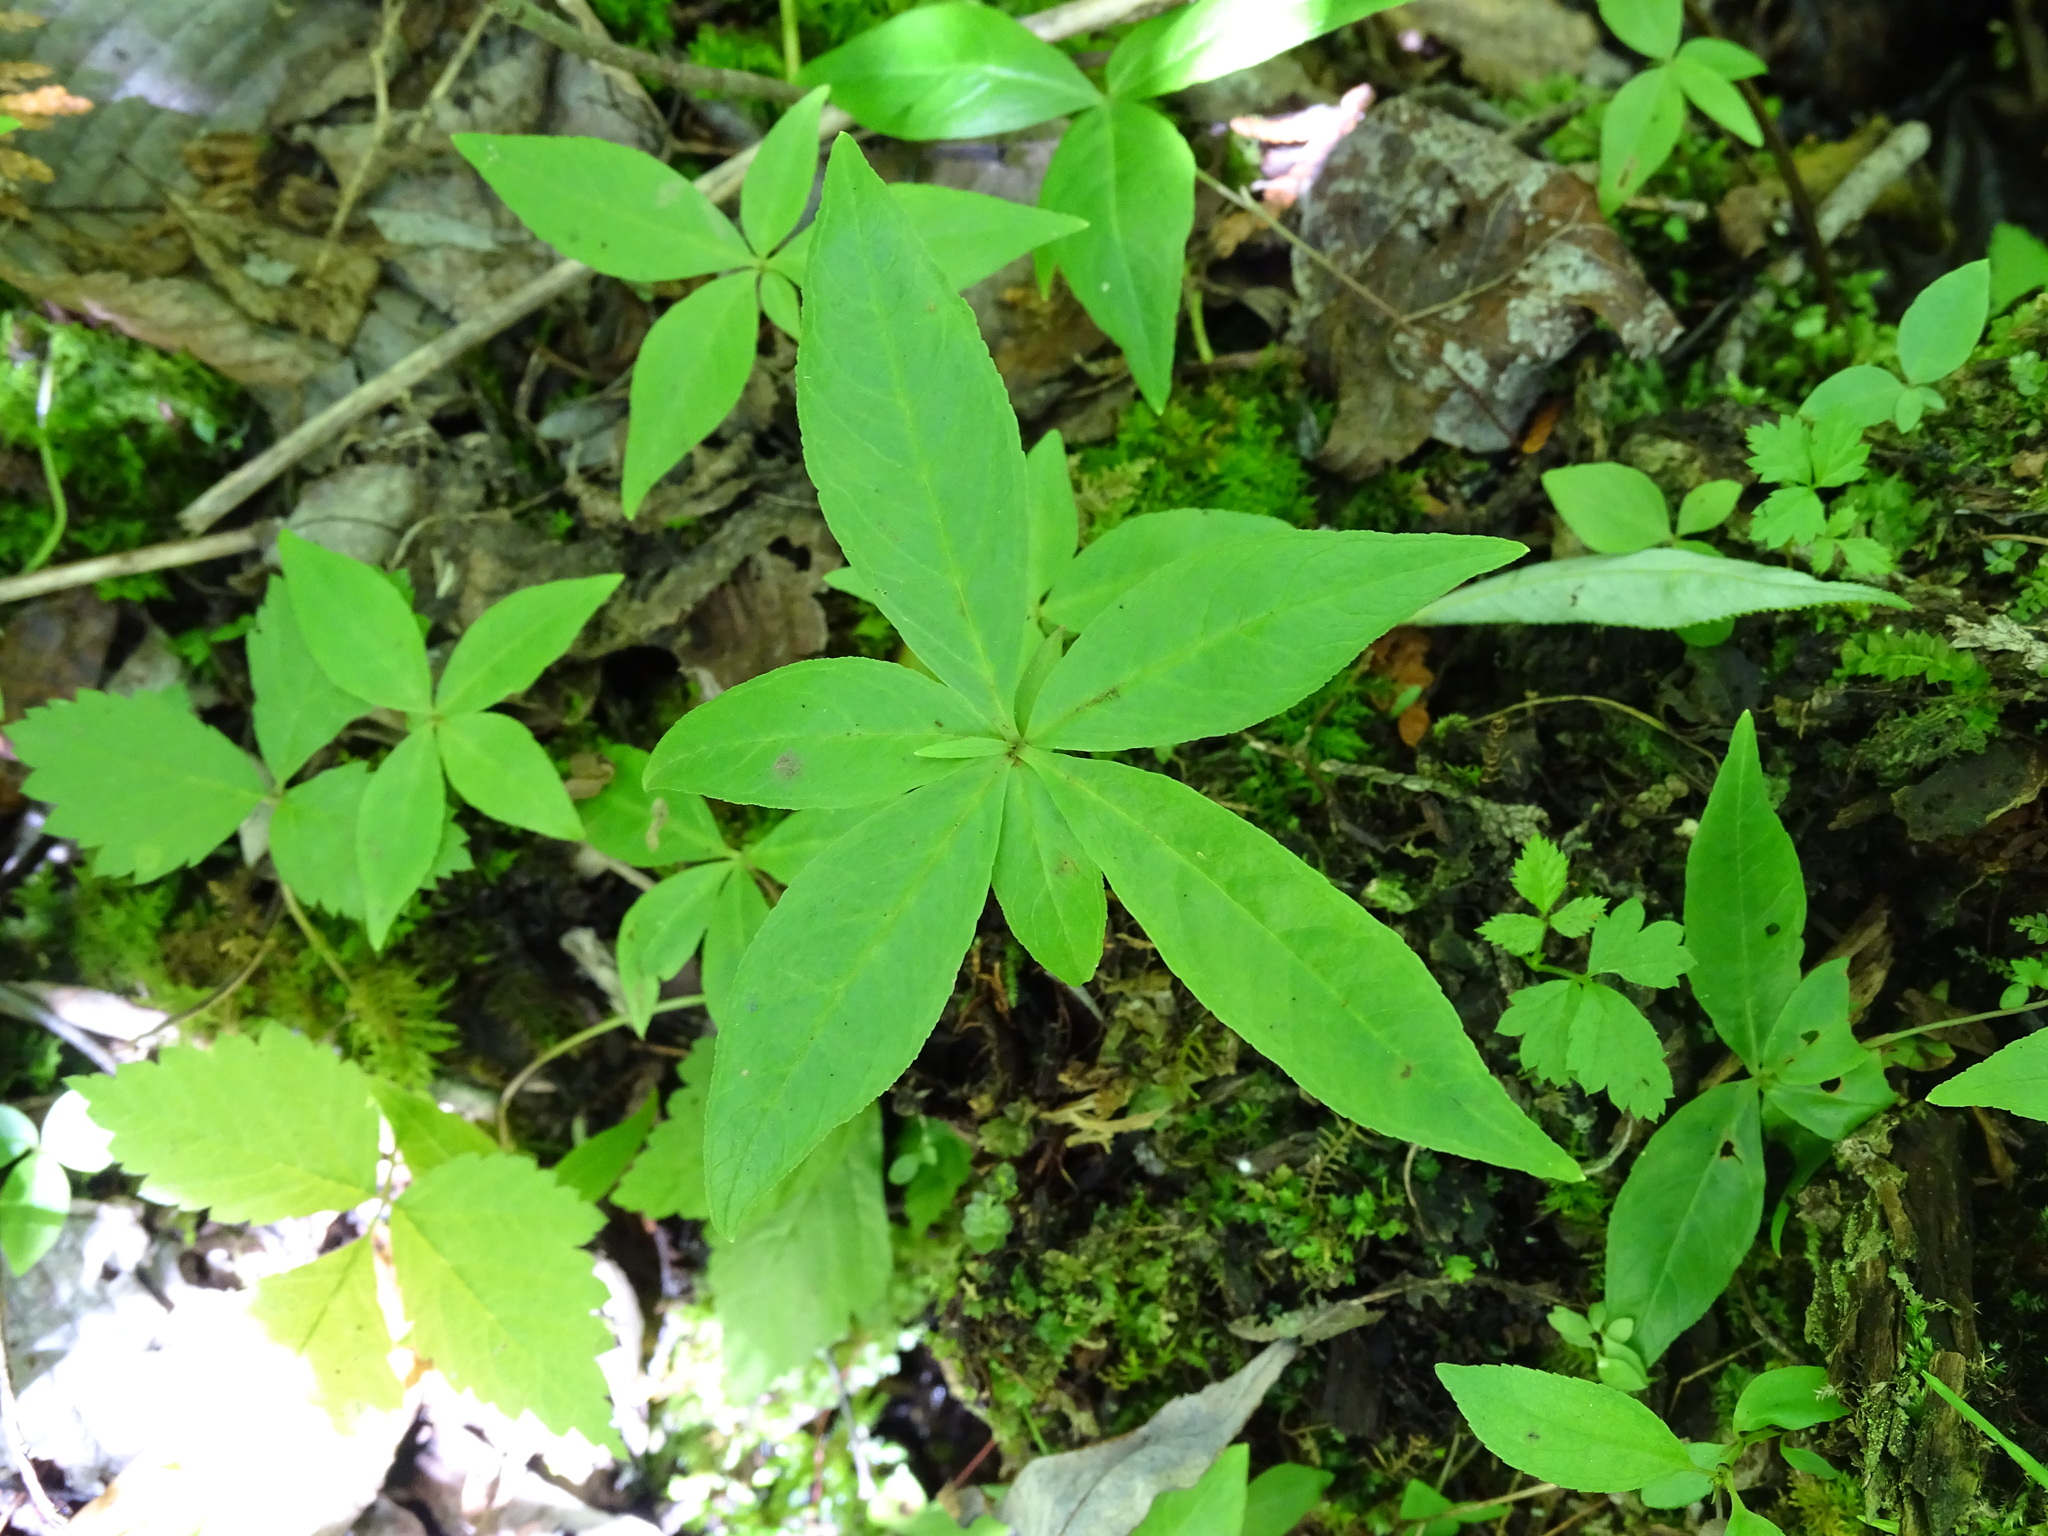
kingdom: Plantae
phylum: Tracheophyta
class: Magnoliopsida
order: Ericales
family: Primulaceae
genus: Lysimachia
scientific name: Lysimachia borealis
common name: American starflower
